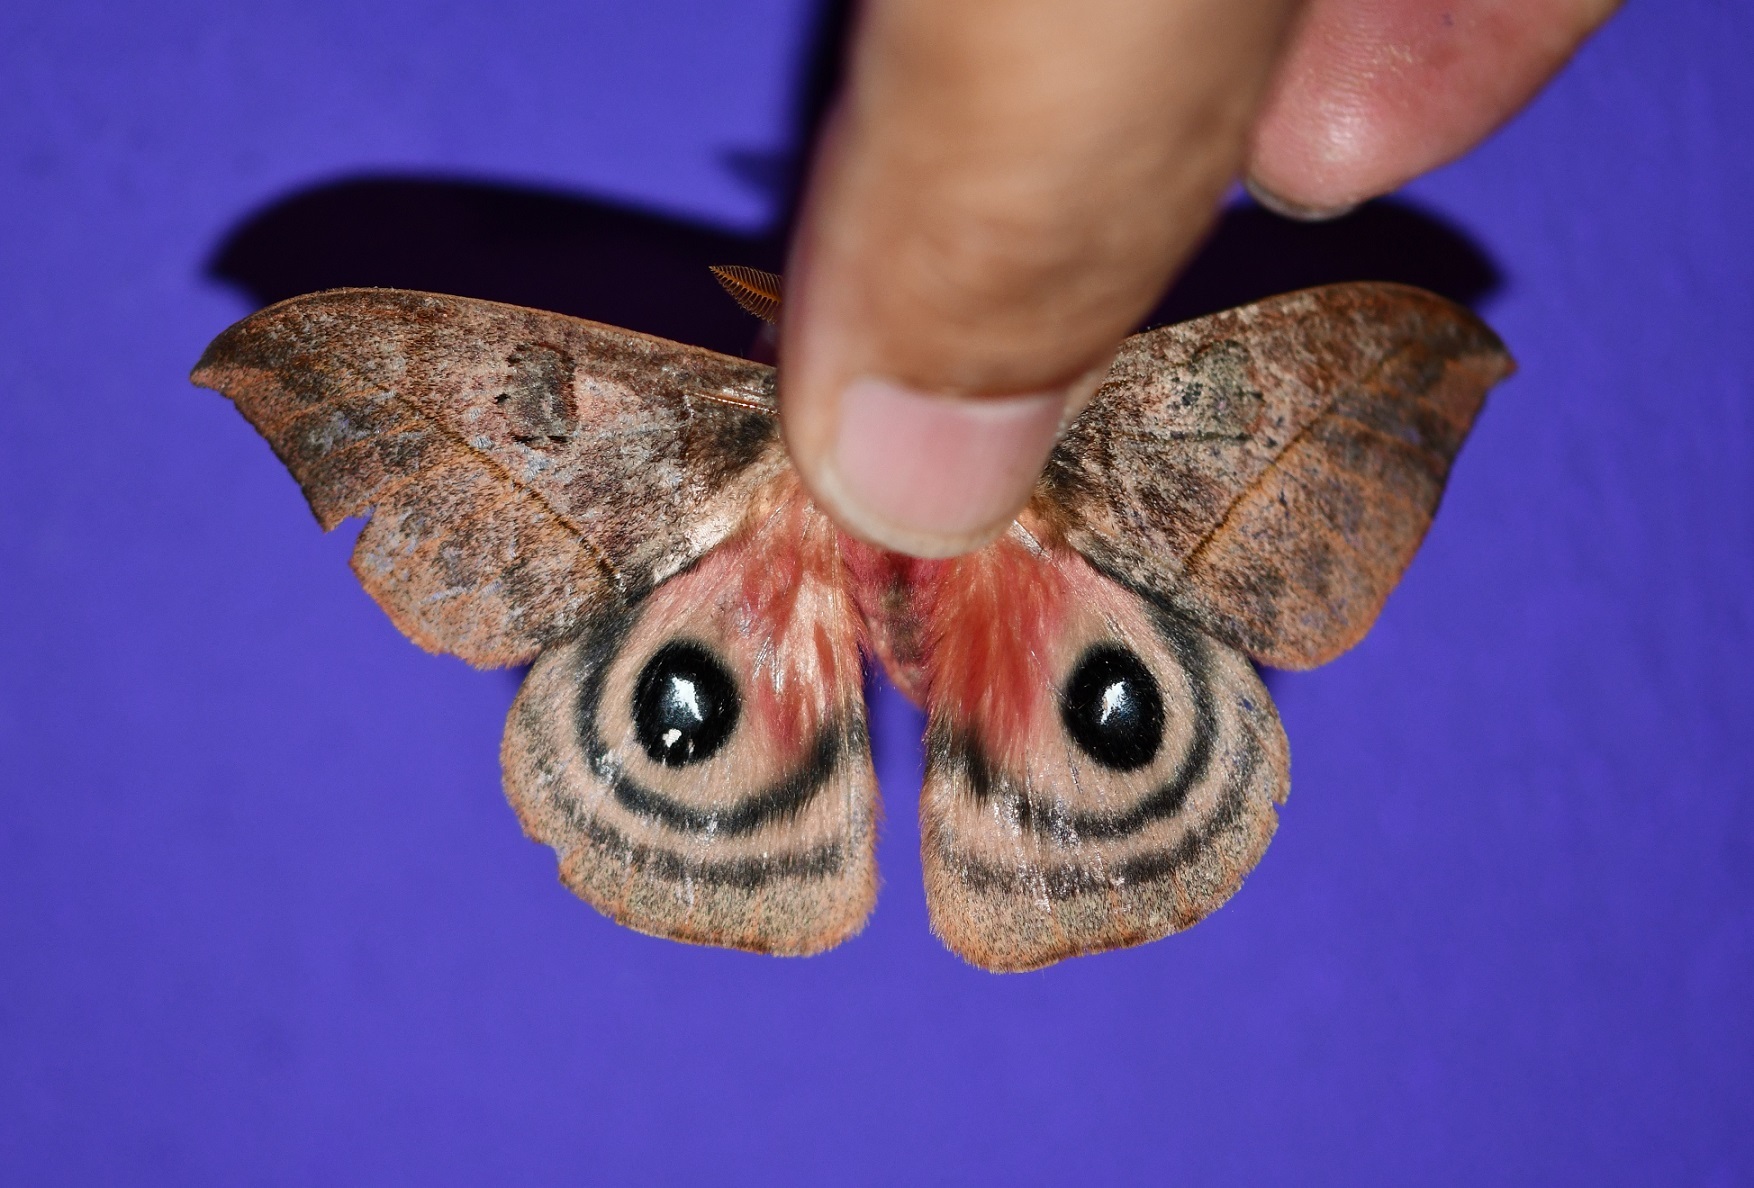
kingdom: Animalia
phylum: Arthropoda
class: Insecta
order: Lepidoptera
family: Saturniidae
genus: Automeris
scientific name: Automeris windiana
